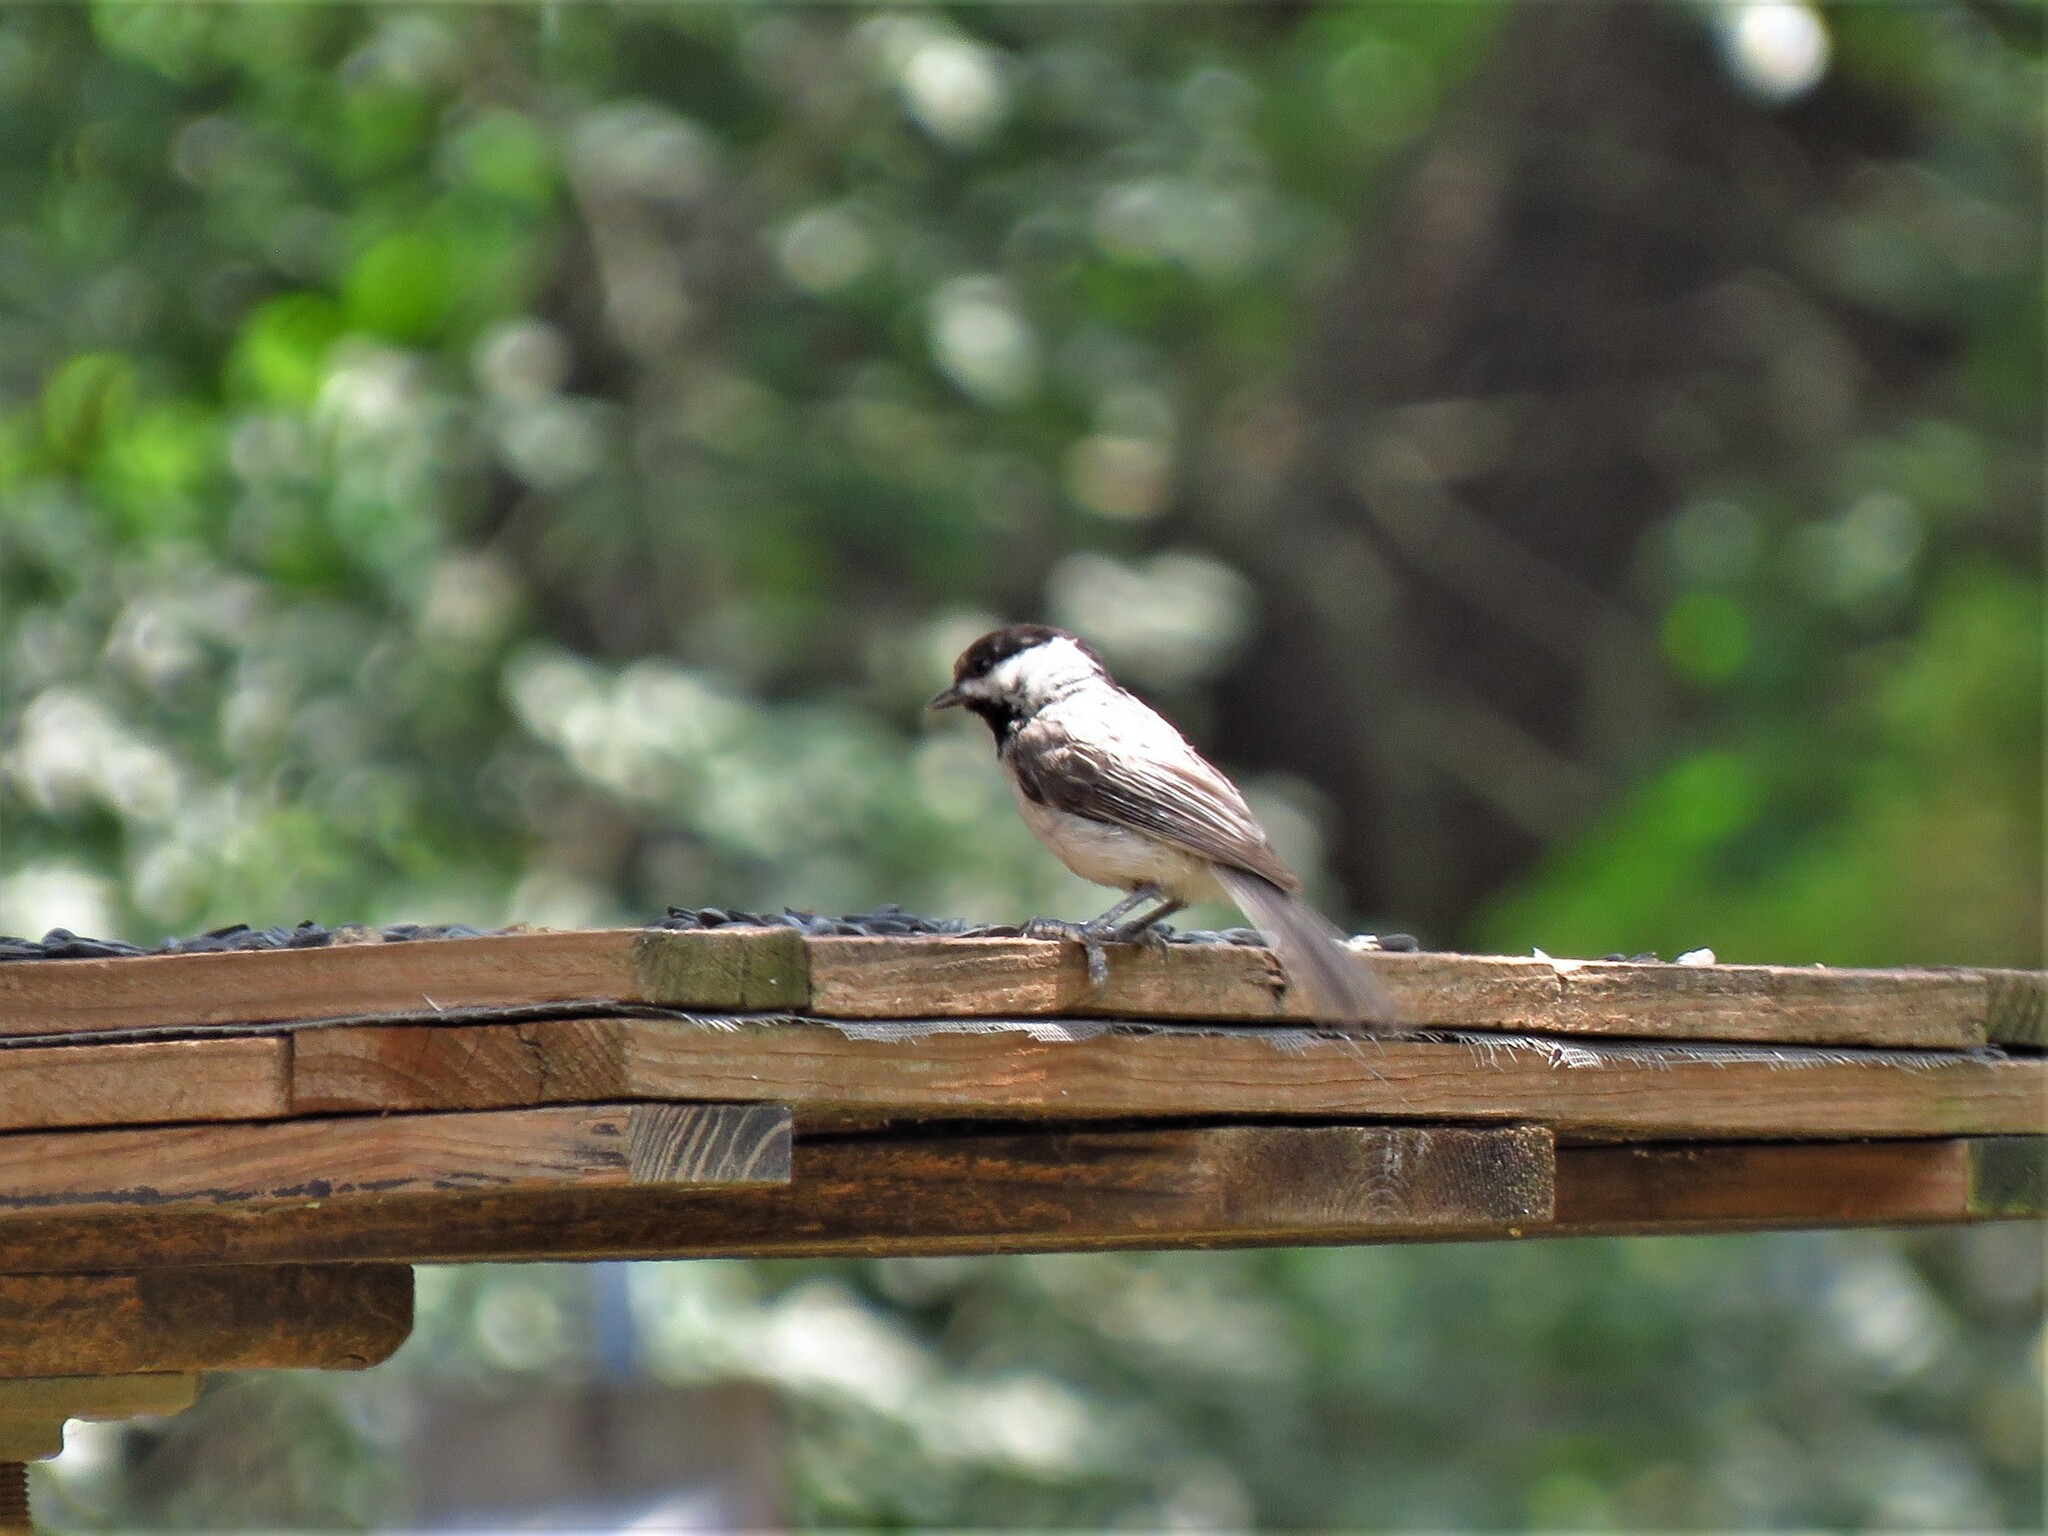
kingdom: Animalia
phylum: Chordata
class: Aves
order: Passeriformes
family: Paridae
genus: Poecile
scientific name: Poecile carolinensis
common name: Carolina chickadee
